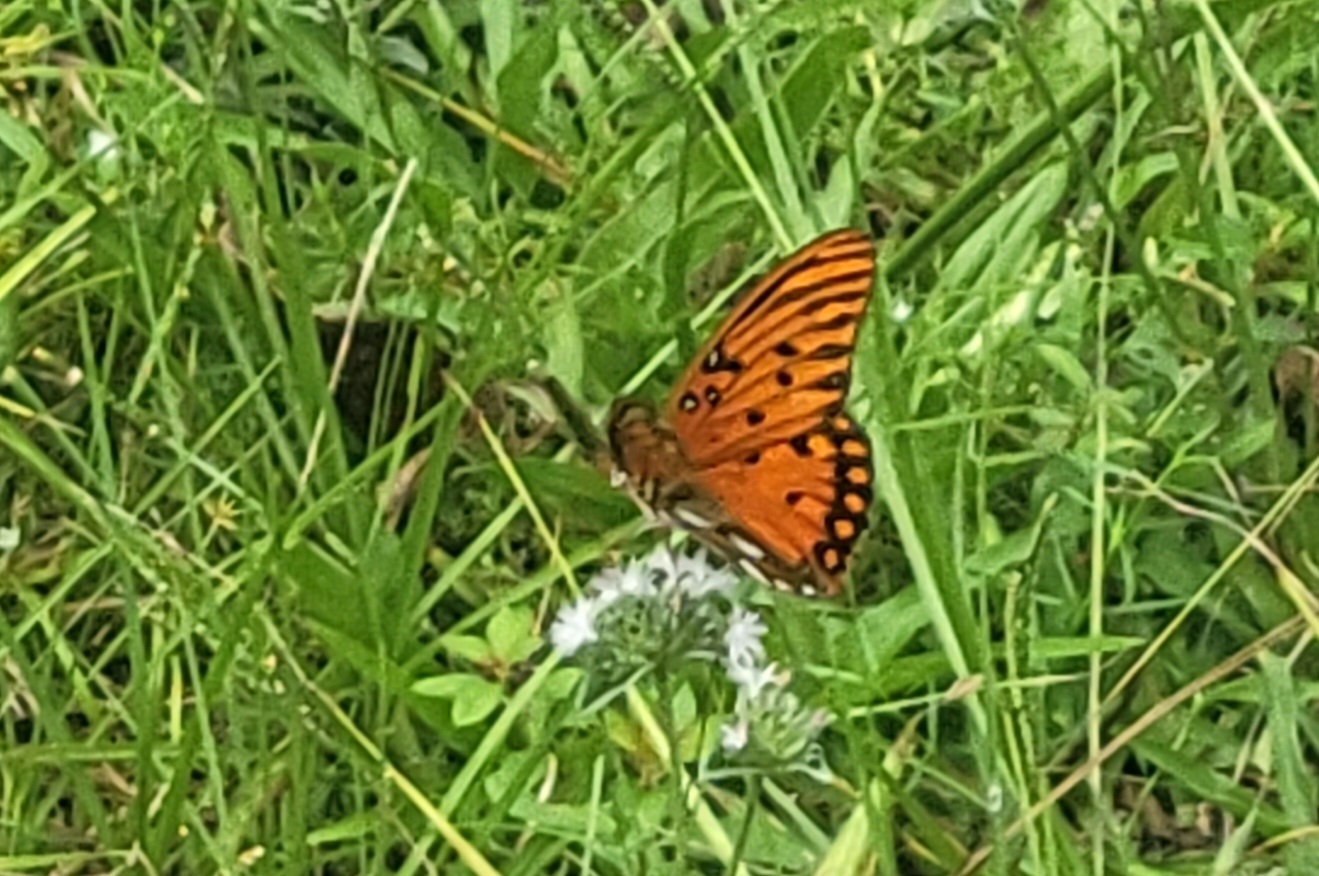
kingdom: Animalia
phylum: Arthropoda
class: Insecta
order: Lepidoptera
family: Nymphalidae
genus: Dione
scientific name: Dione vanillae
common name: Gulf fritillary
